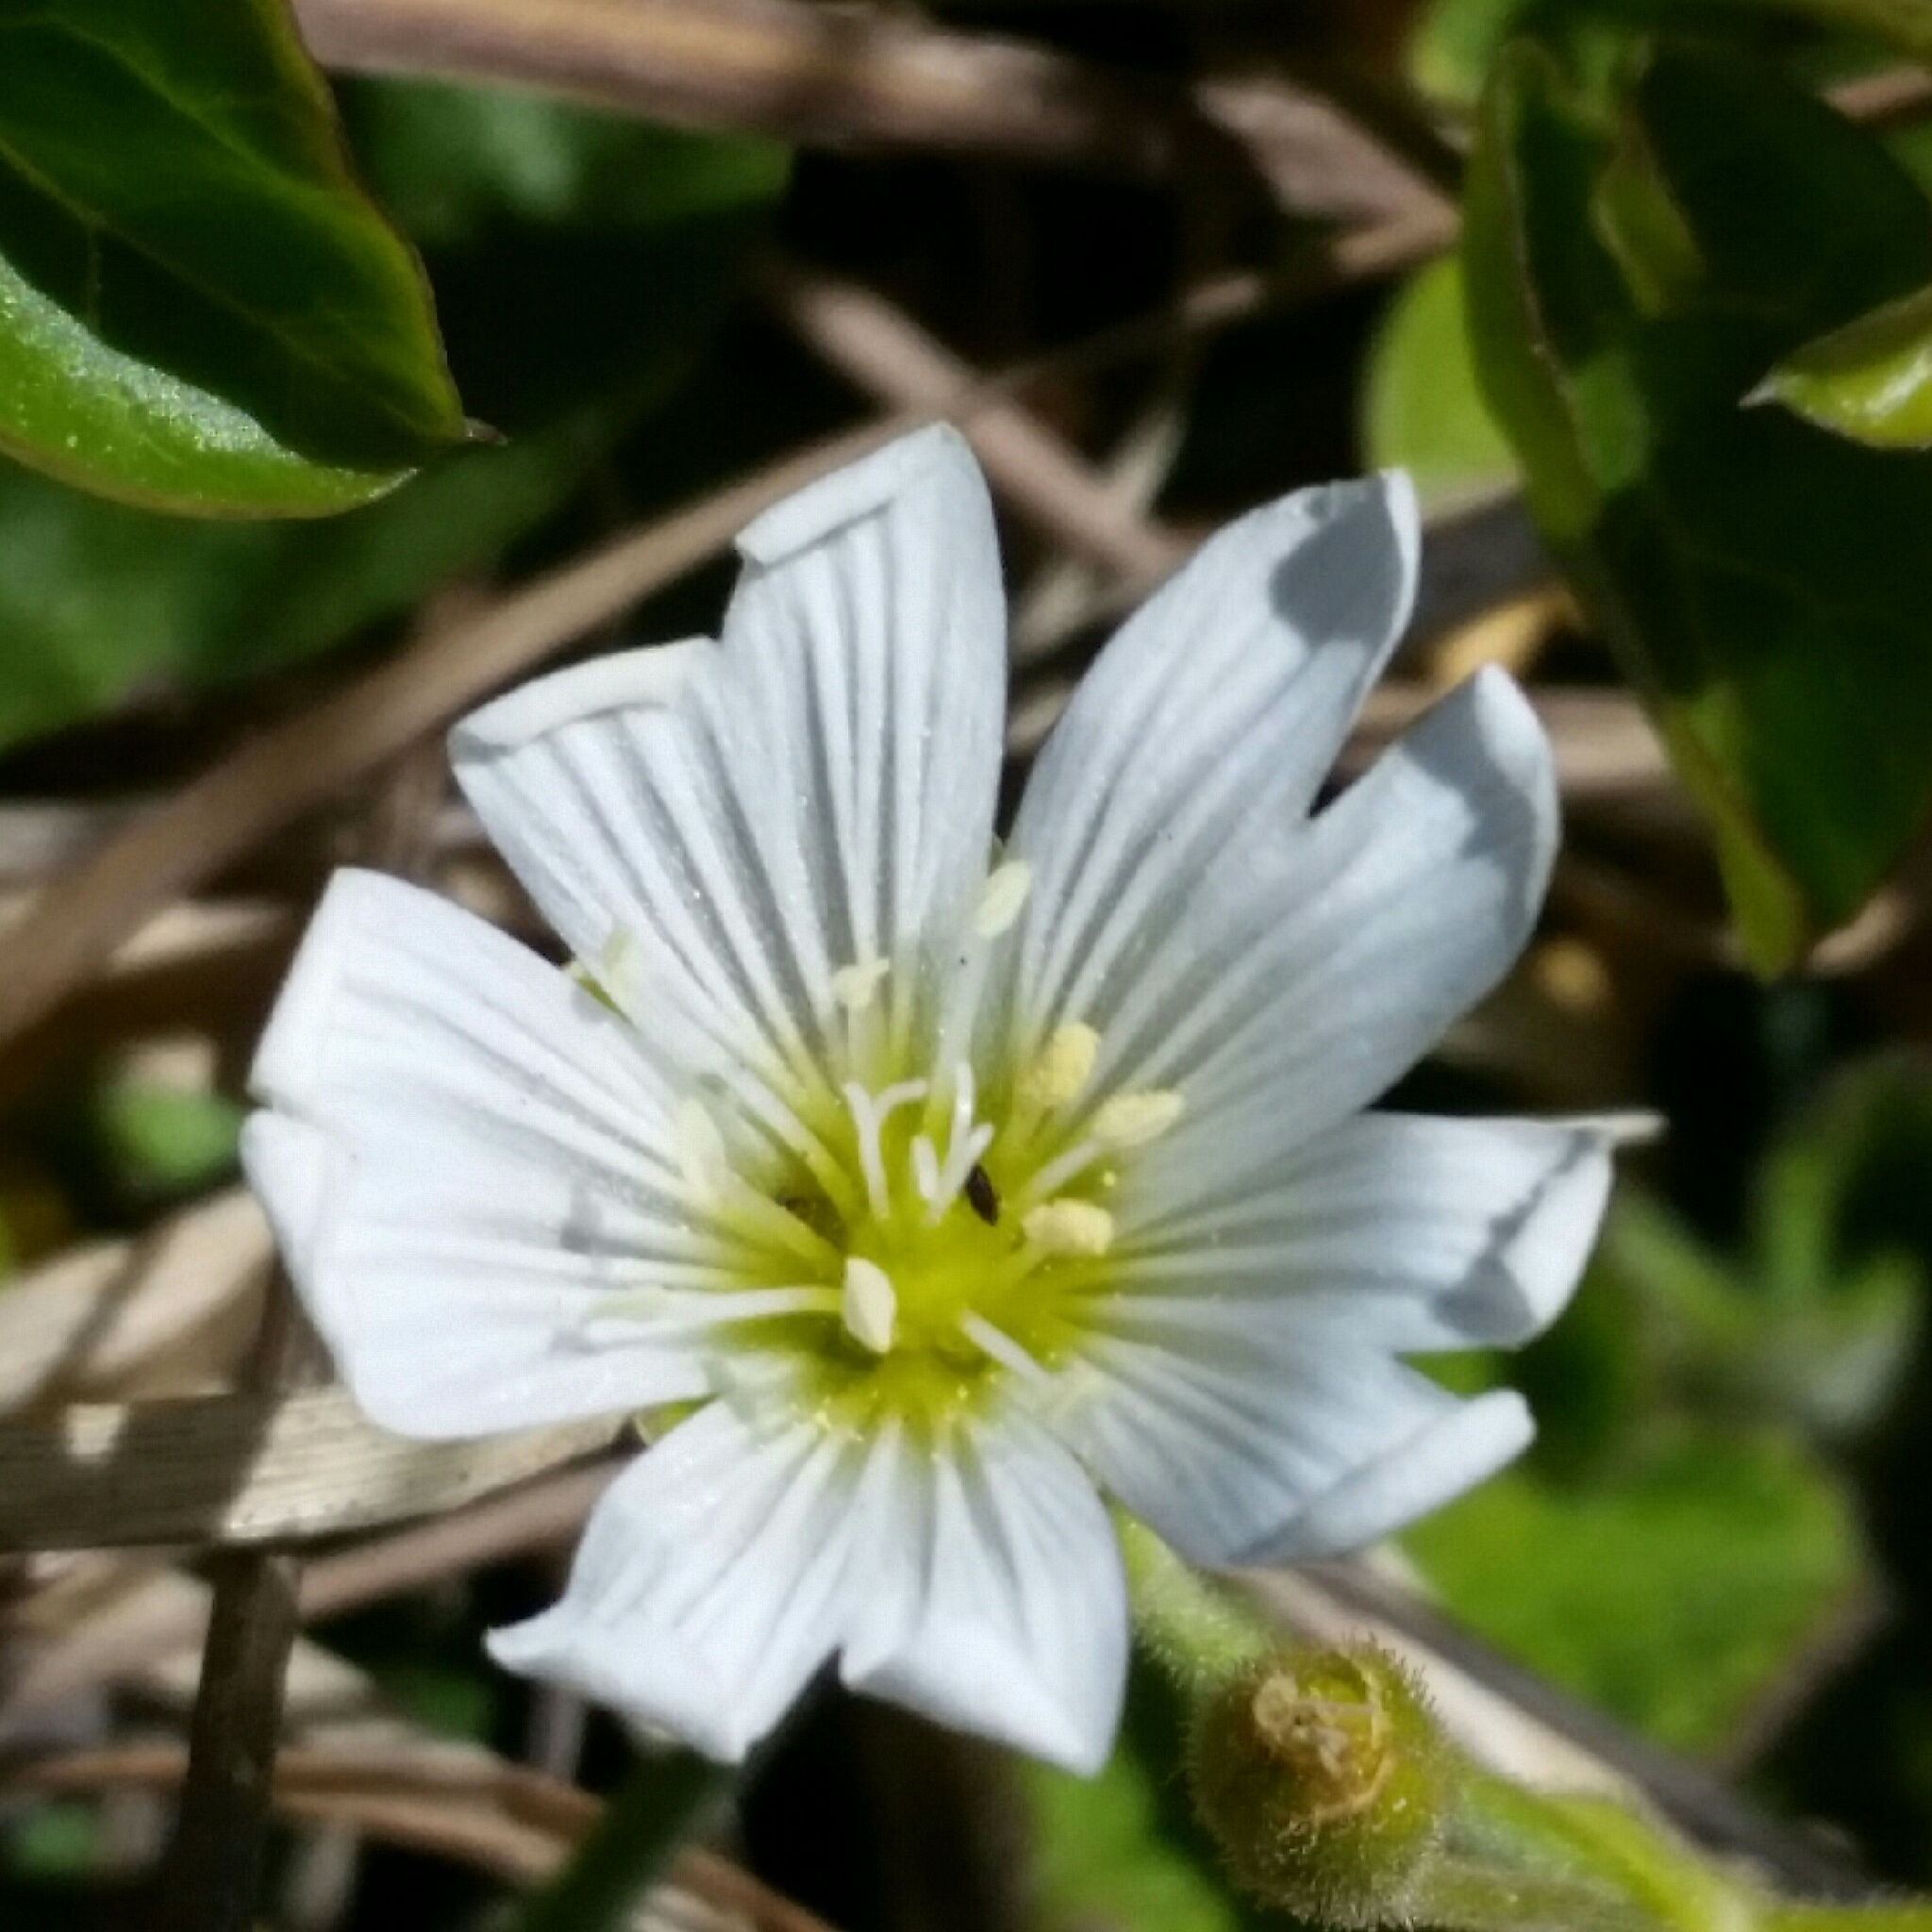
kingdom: Plantae
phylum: Tracheophyta
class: Magnoliopsida
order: Caryophyllales
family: Caryophyllaceae
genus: Cerastium
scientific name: Cerastium arvense
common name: Field mouse-ear
